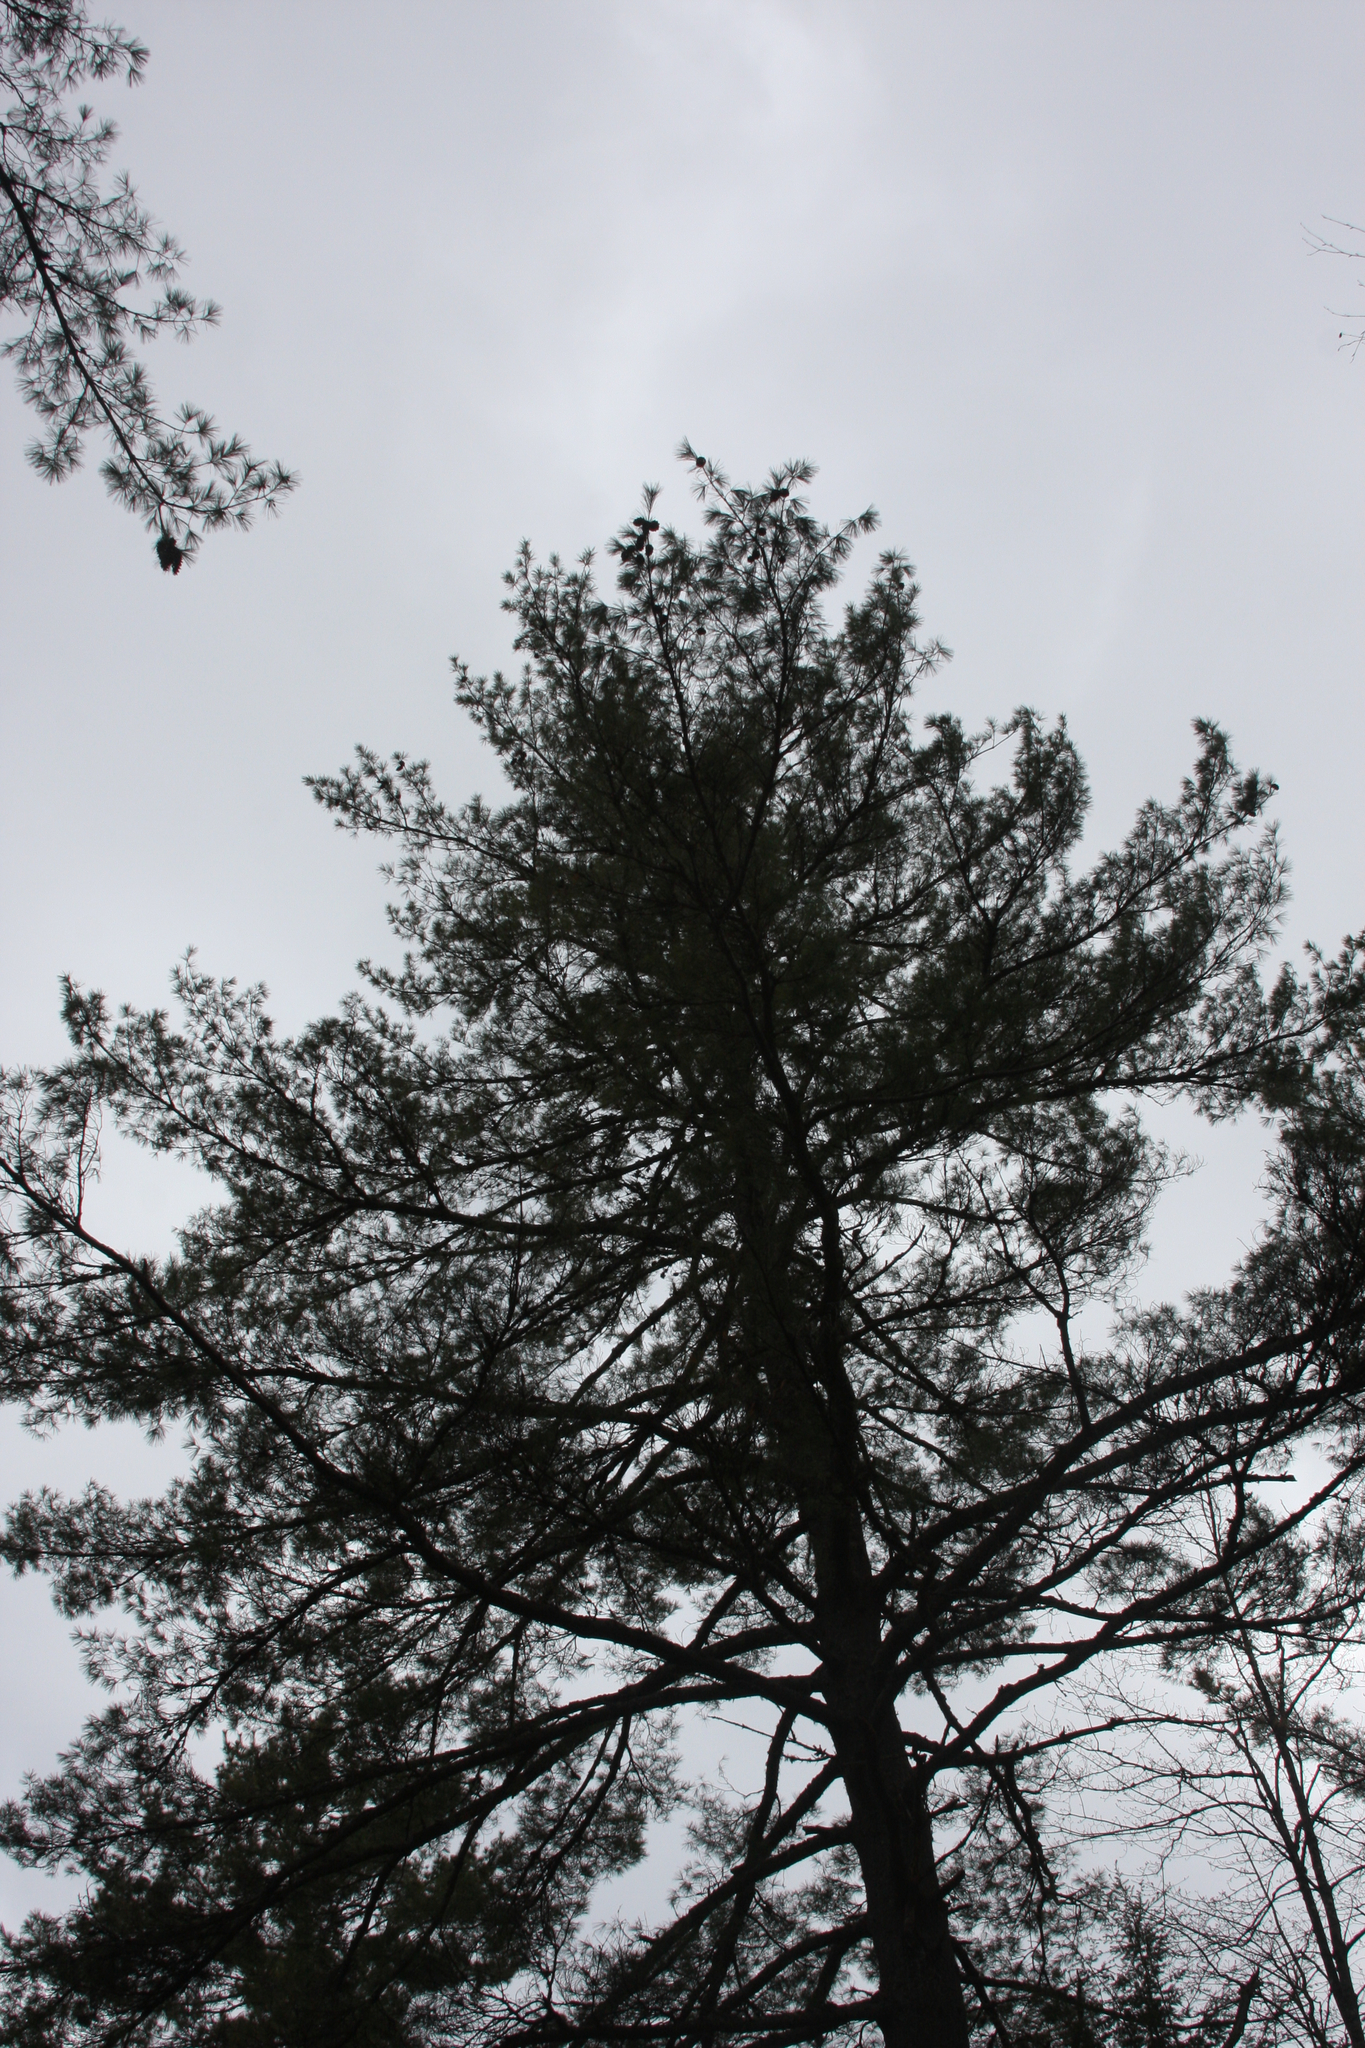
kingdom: Plantae
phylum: Tracheophyta
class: Pinopsida
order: Pinales
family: Pinaceae
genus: Pinus
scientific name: Pinus strobus
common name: Weymouth pine
